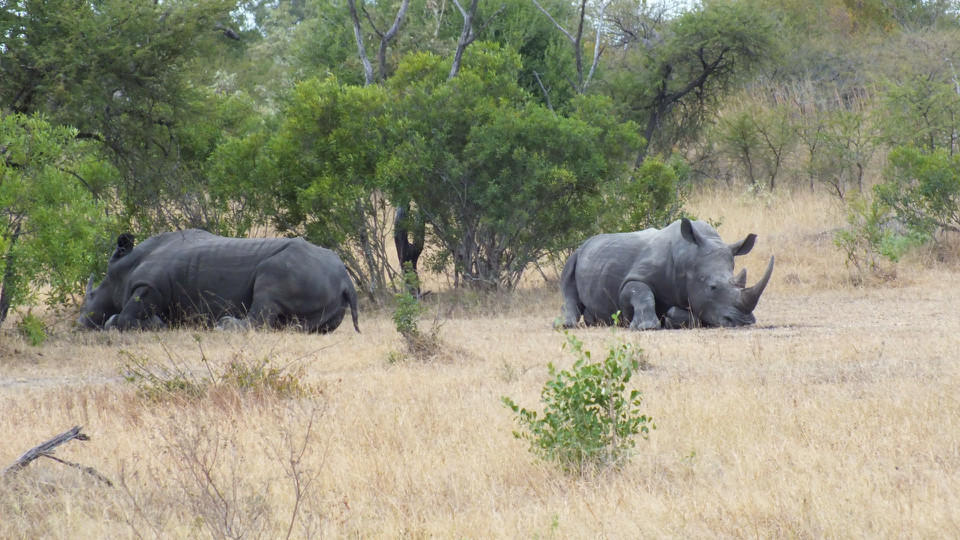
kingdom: Animalia
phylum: Chordata
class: Mammalia
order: Perissodactyla
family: Rhinocerotidae
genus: Ceratotherium
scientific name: Ceratotherium simum
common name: White rhinoceros
